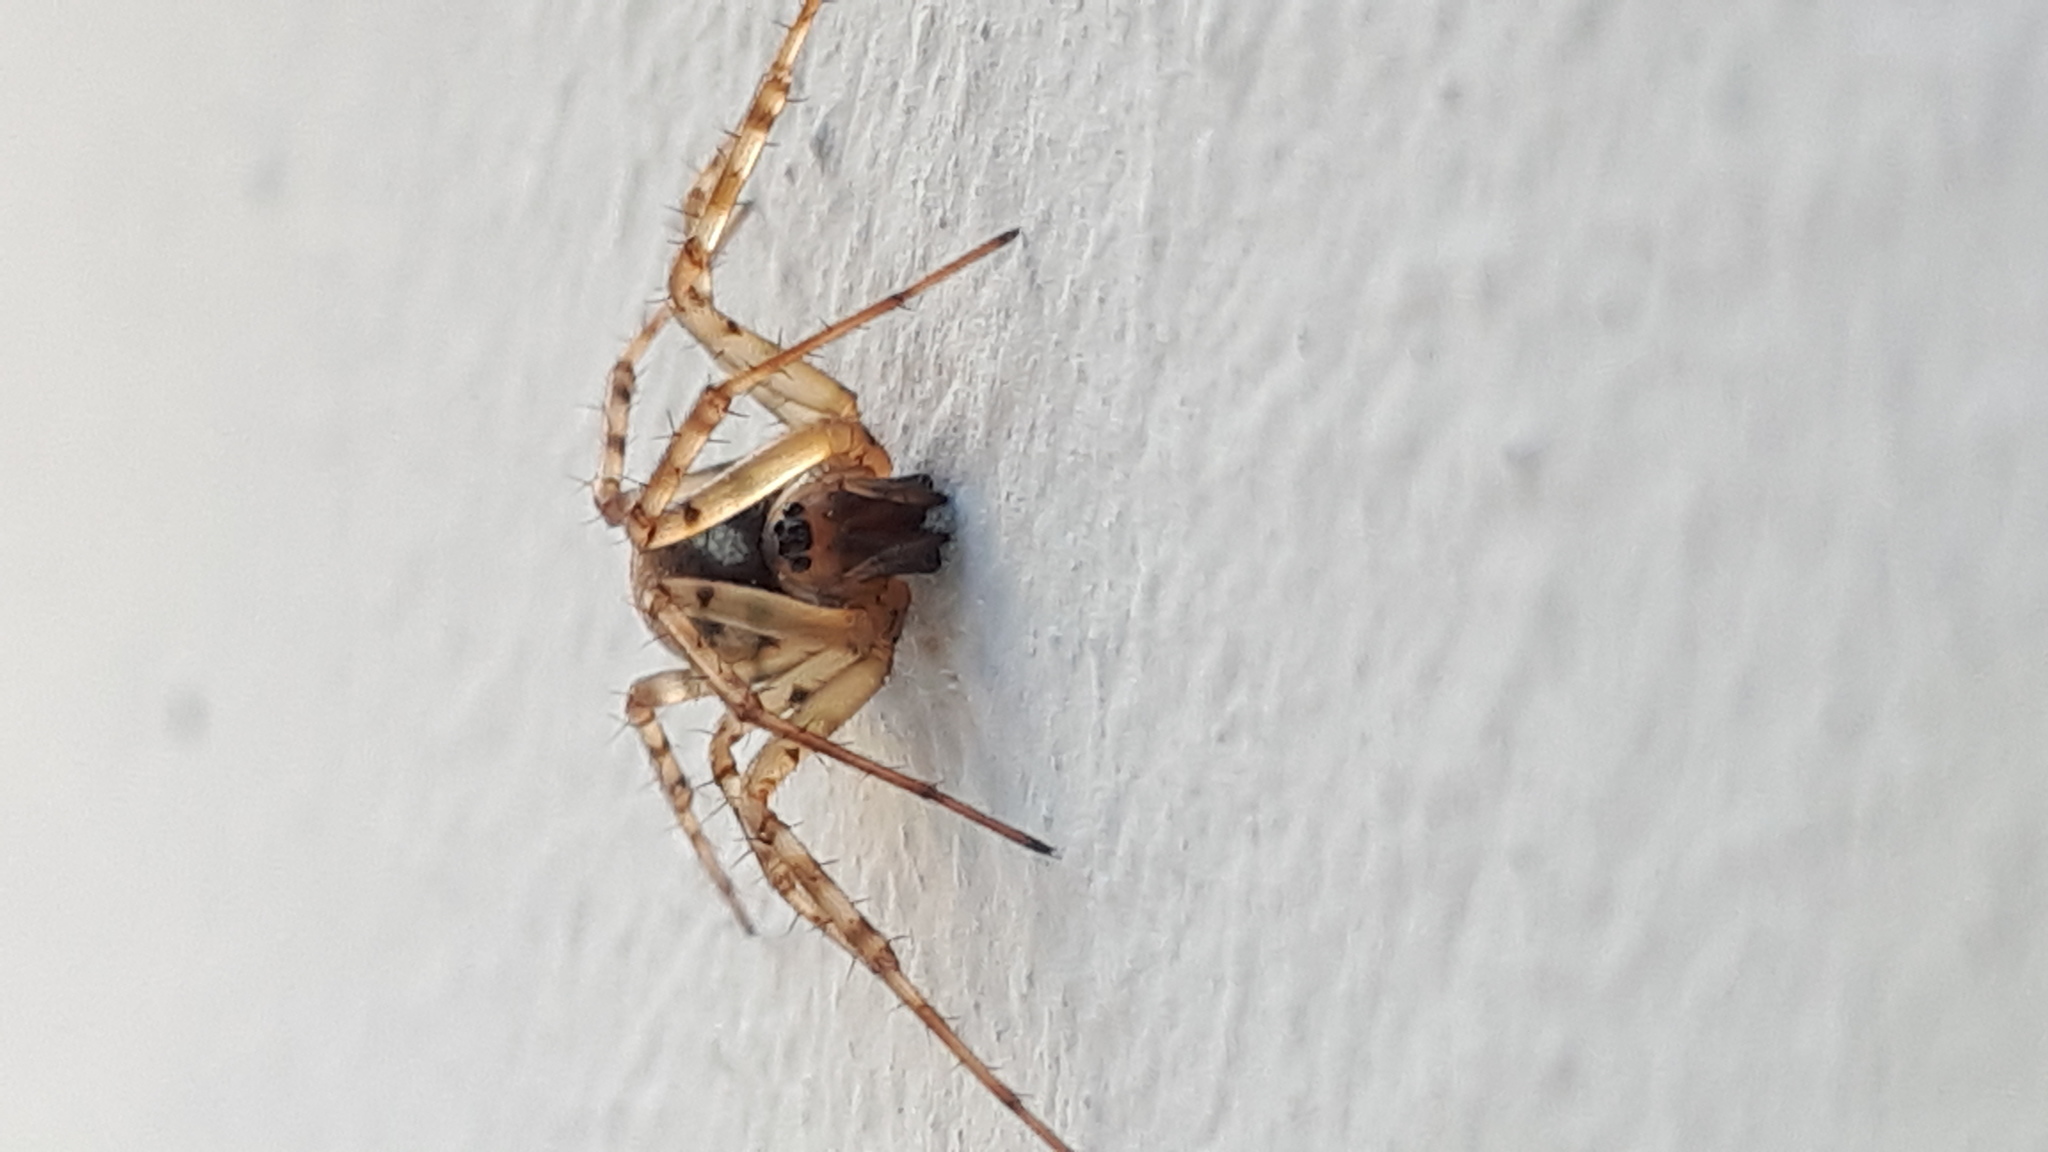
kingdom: Animalia
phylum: Arthropoda
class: Arachnida
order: Araneae
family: Linyphiidae
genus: Neriene
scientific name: Neriene montana
